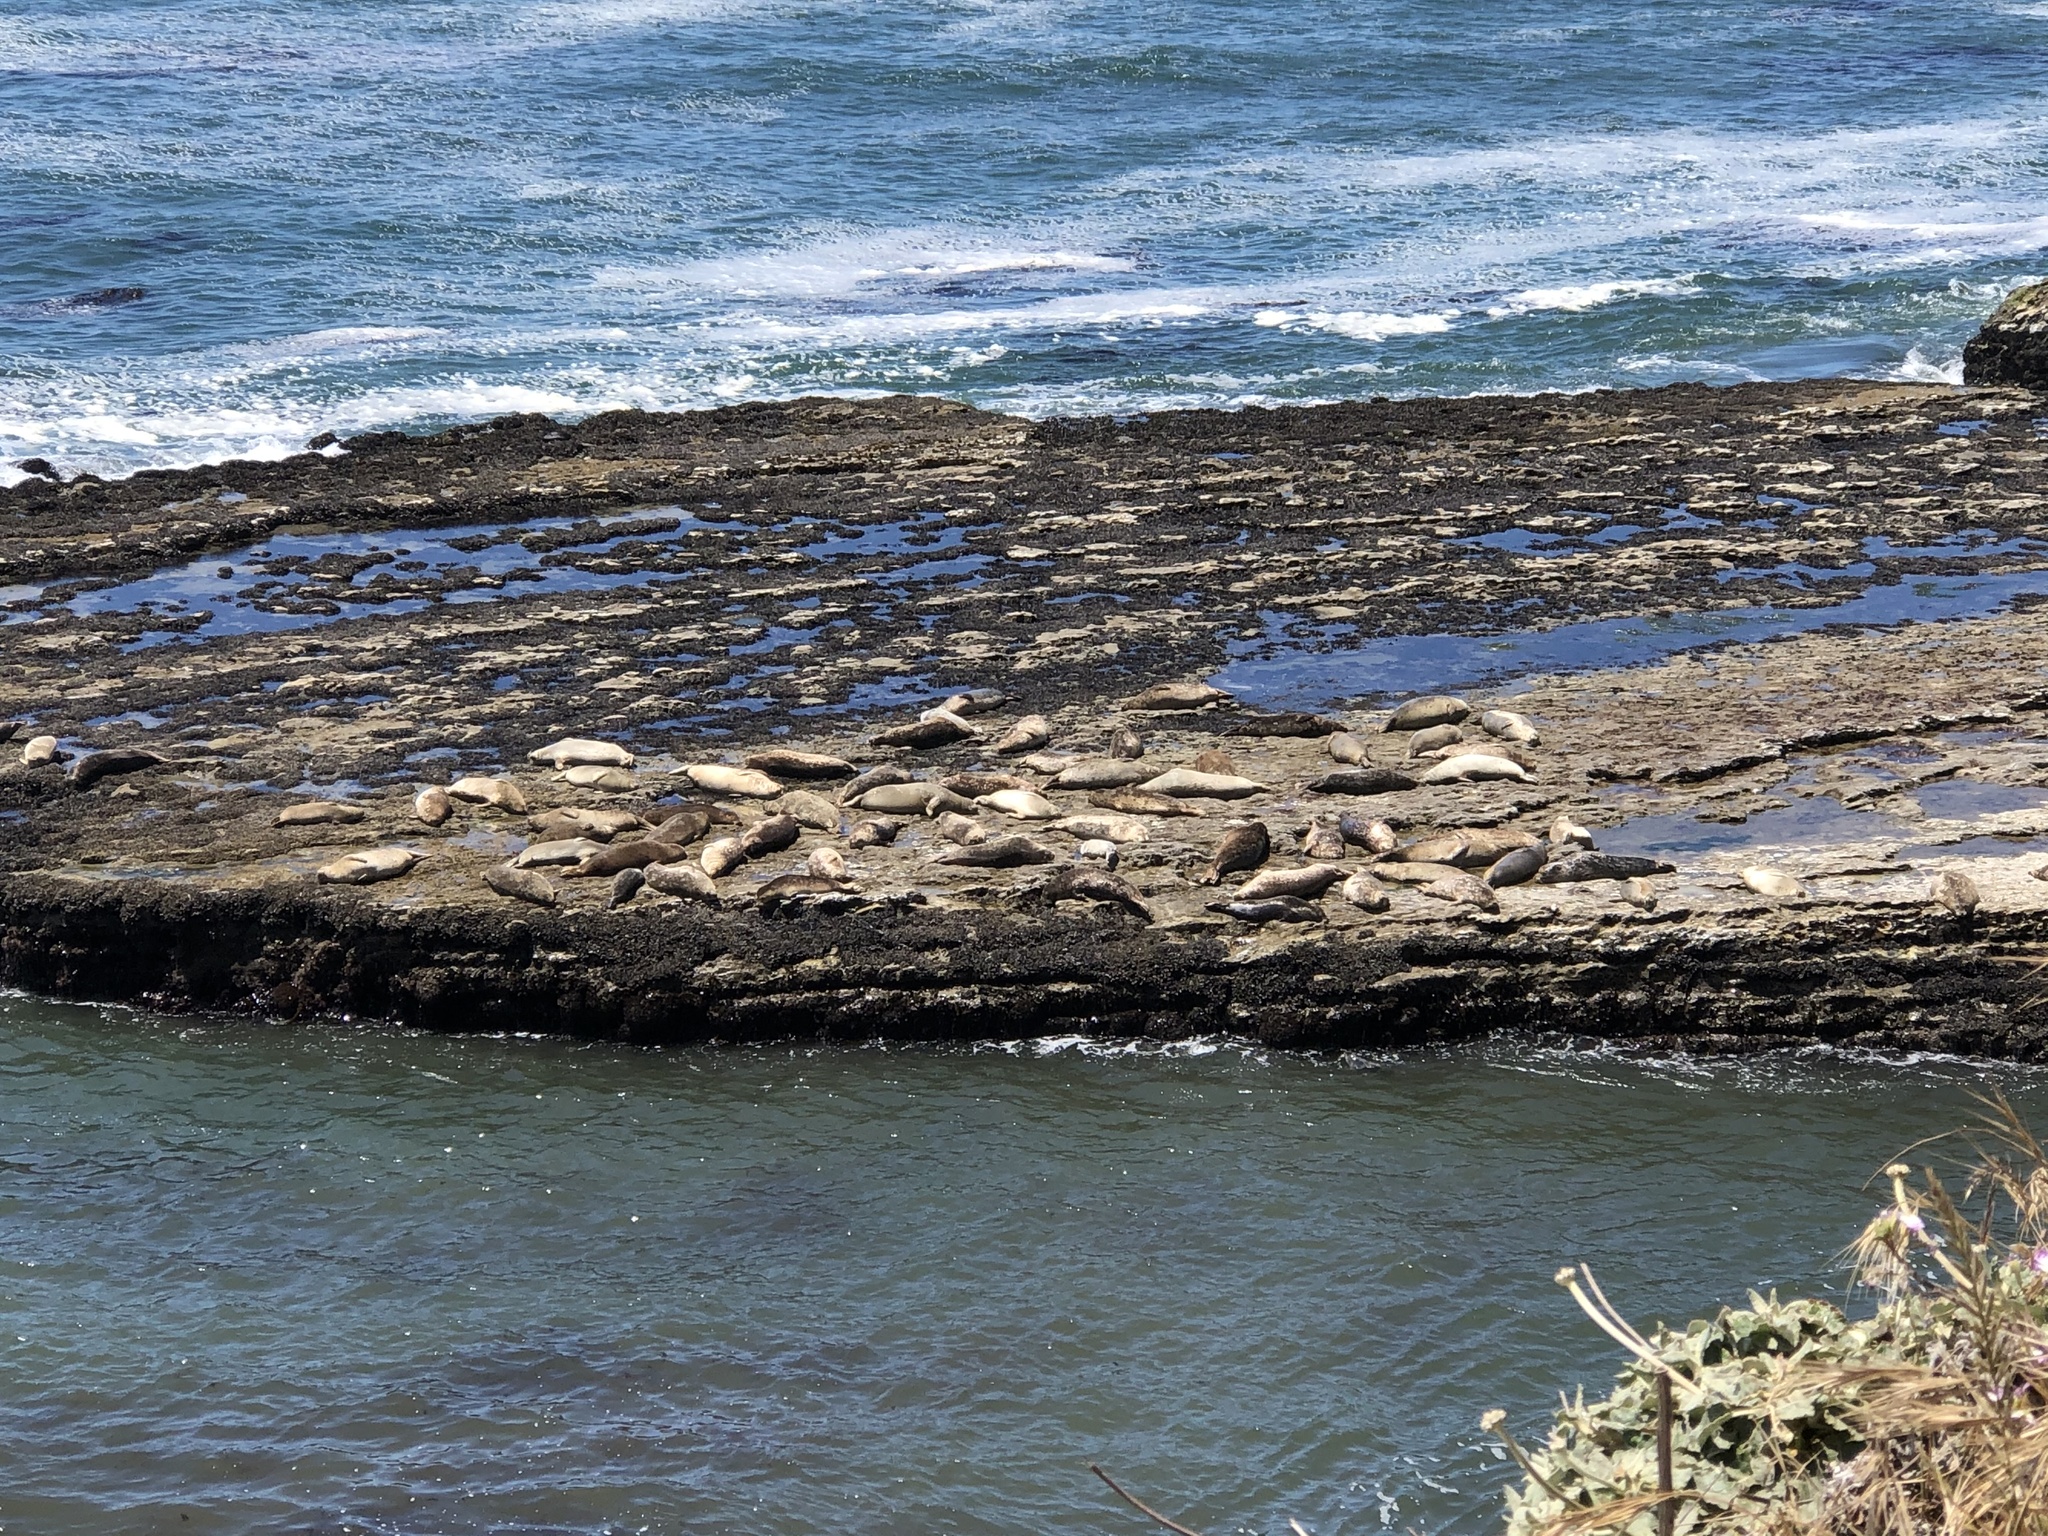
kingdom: Animalia
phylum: Chordata
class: Mammalia
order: Carnivora
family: Phocidae
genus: Phoca
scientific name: Phoca vitulina
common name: Harbor seal
